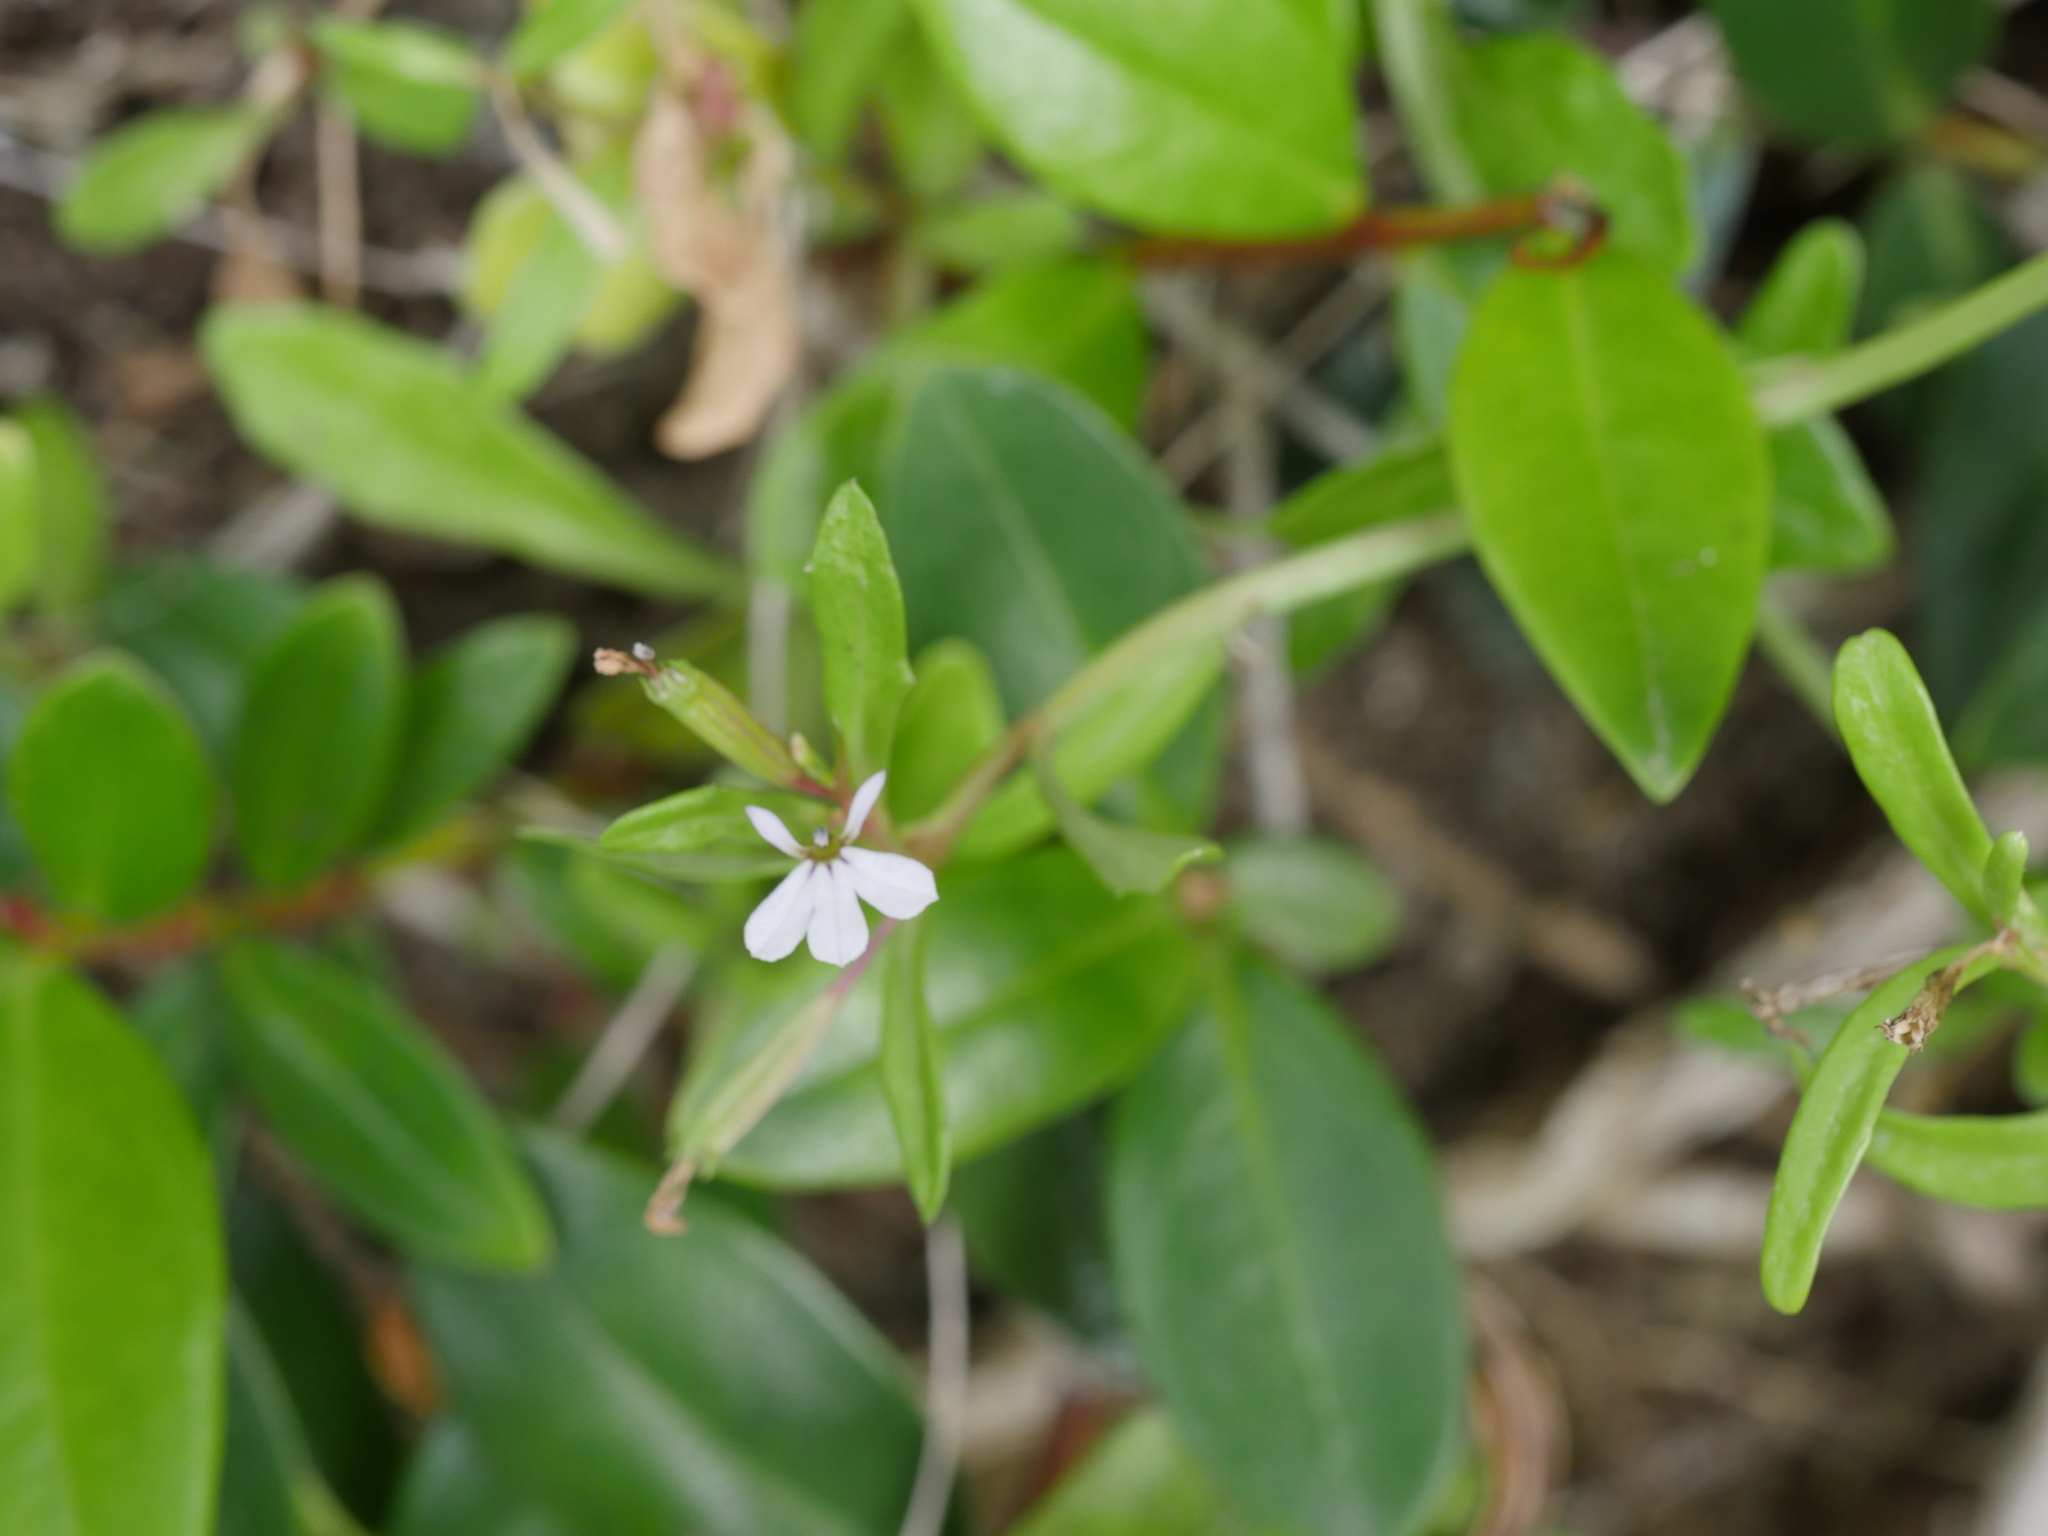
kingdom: Plantae
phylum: Tracheophyta
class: Magnoliopsida
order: Asterales
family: Campanulaceae
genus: Lobelia
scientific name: Lobelia anceps
